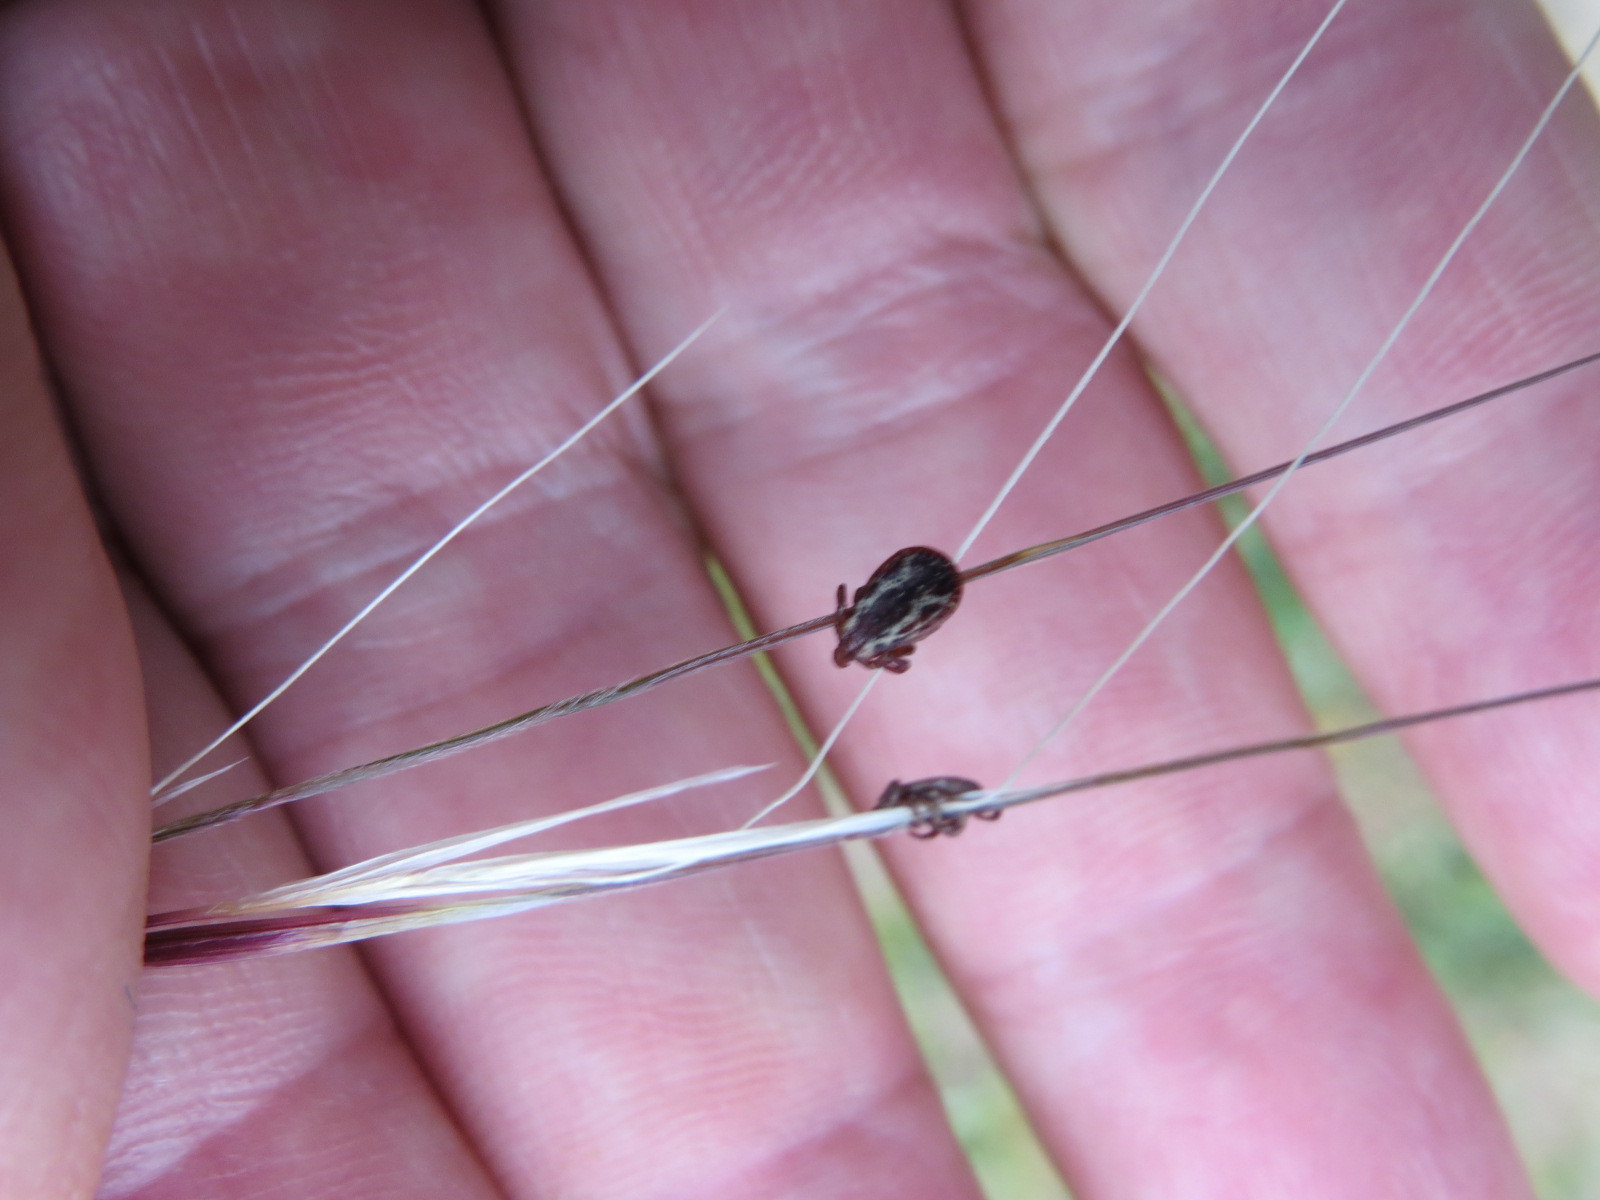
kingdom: Animalia
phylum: Arthropoda
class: Arachnida
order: Ixodida
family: Ixodidae
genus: Dermacentor
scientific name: Dermacentor variabilis
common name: American dog tick
